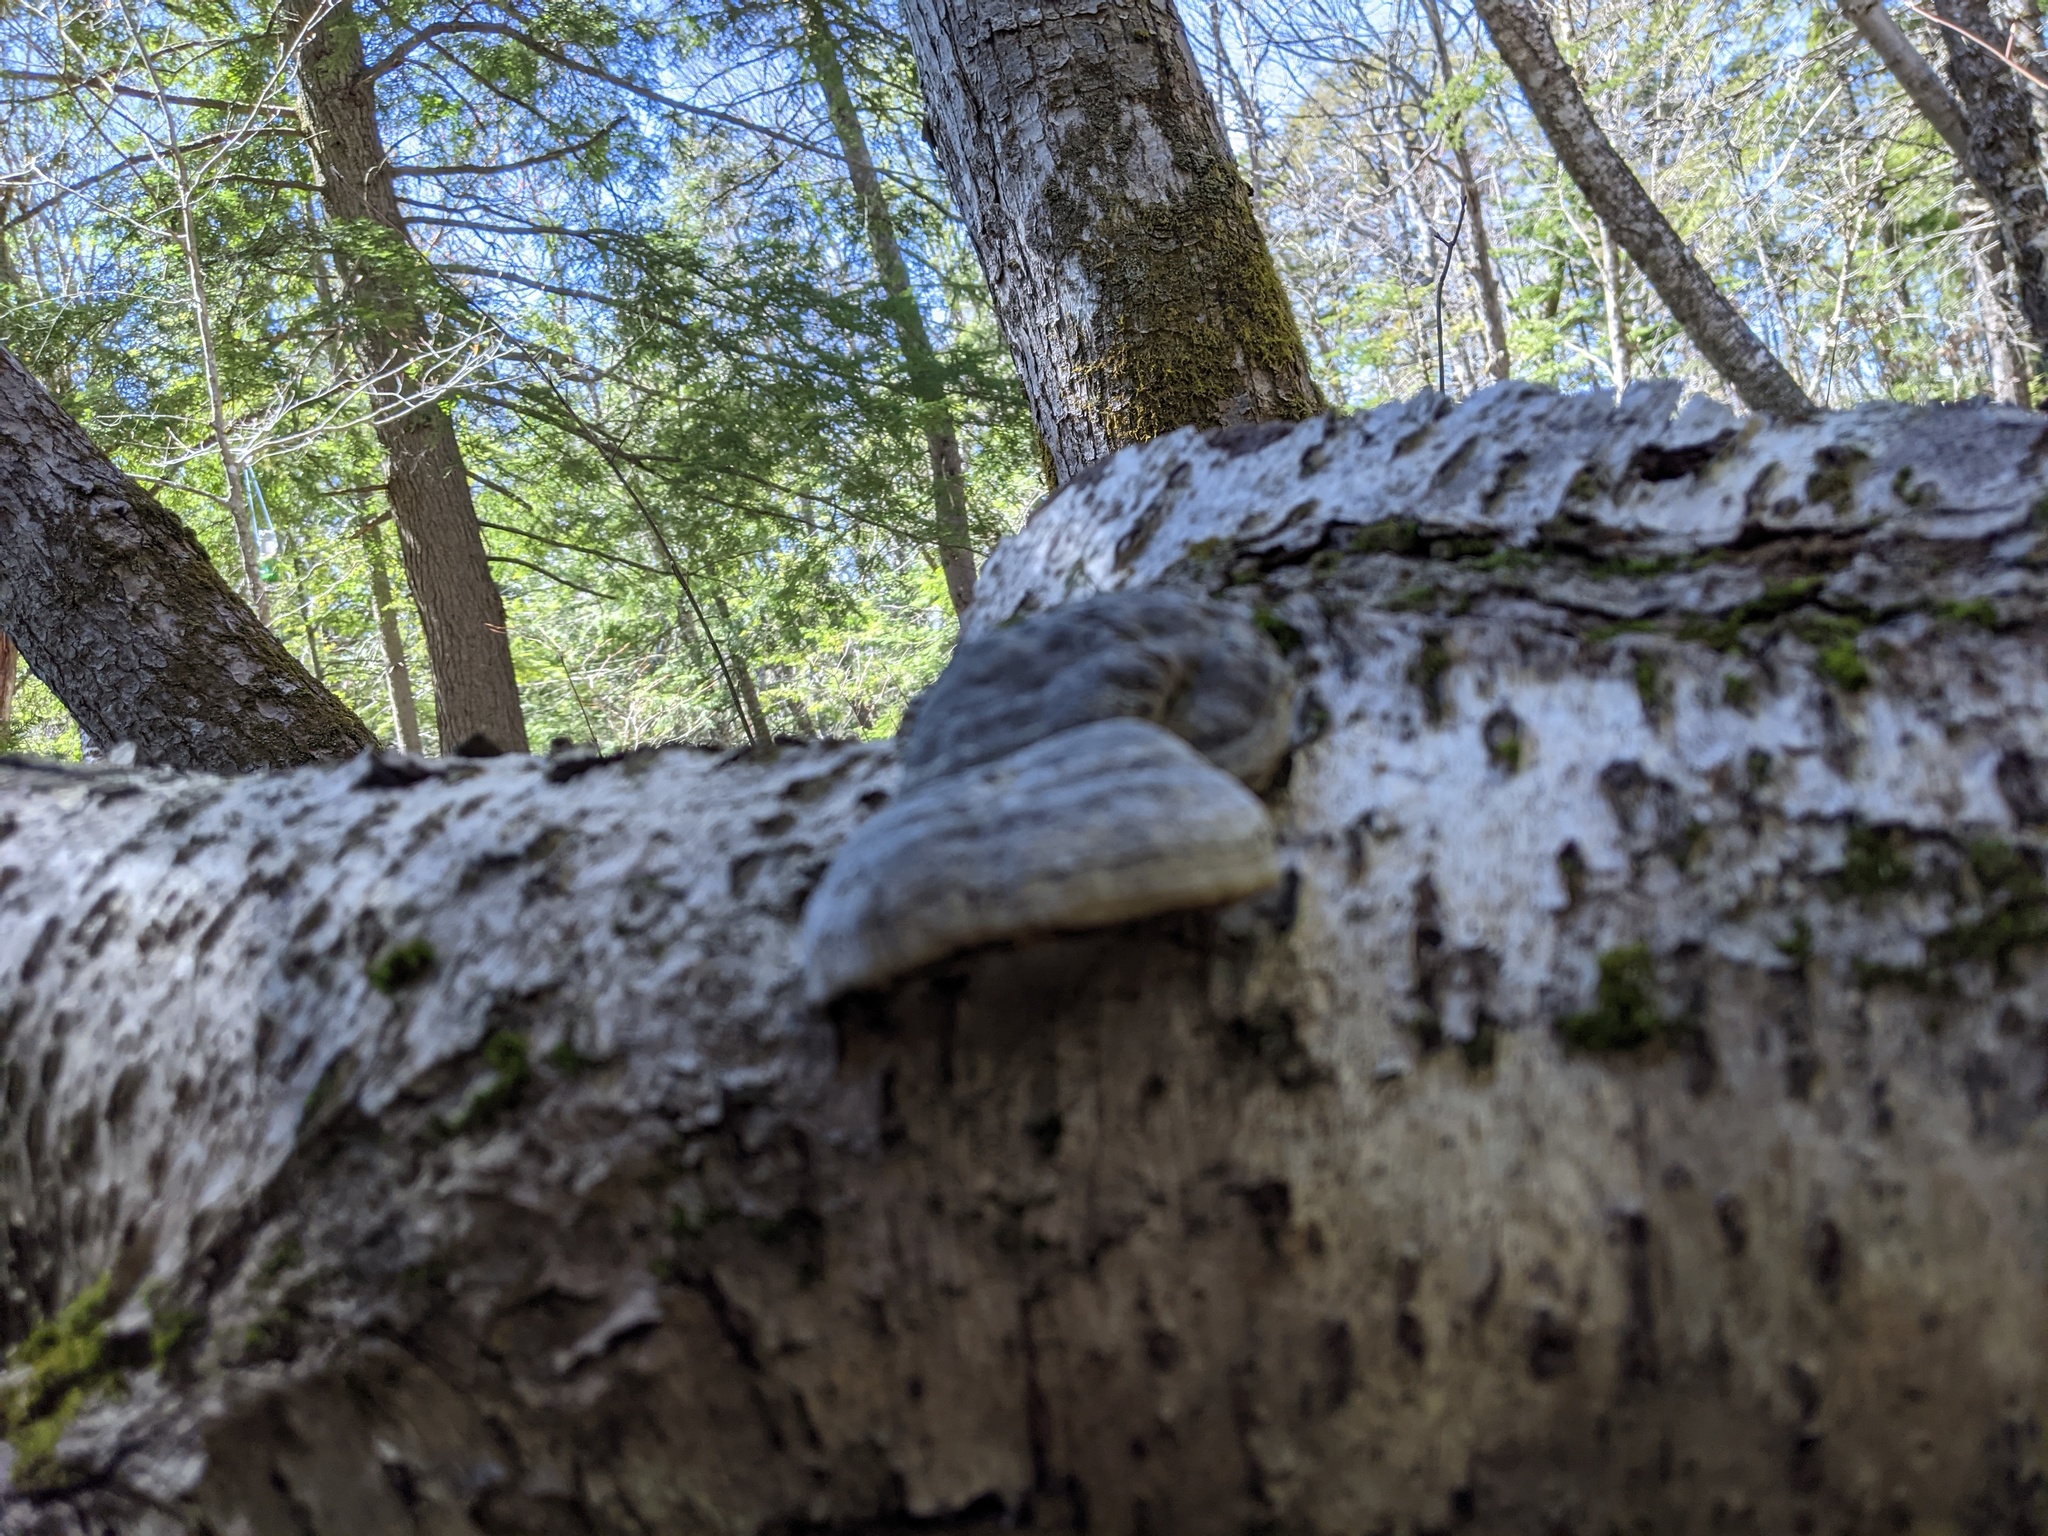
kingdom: Fungi
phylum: Basidiomycota
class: Agaricomycetes
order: Polyporales
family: Polyporaceae
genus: Fomes
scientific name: Fomes fomentarius
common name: Hoof fungus
